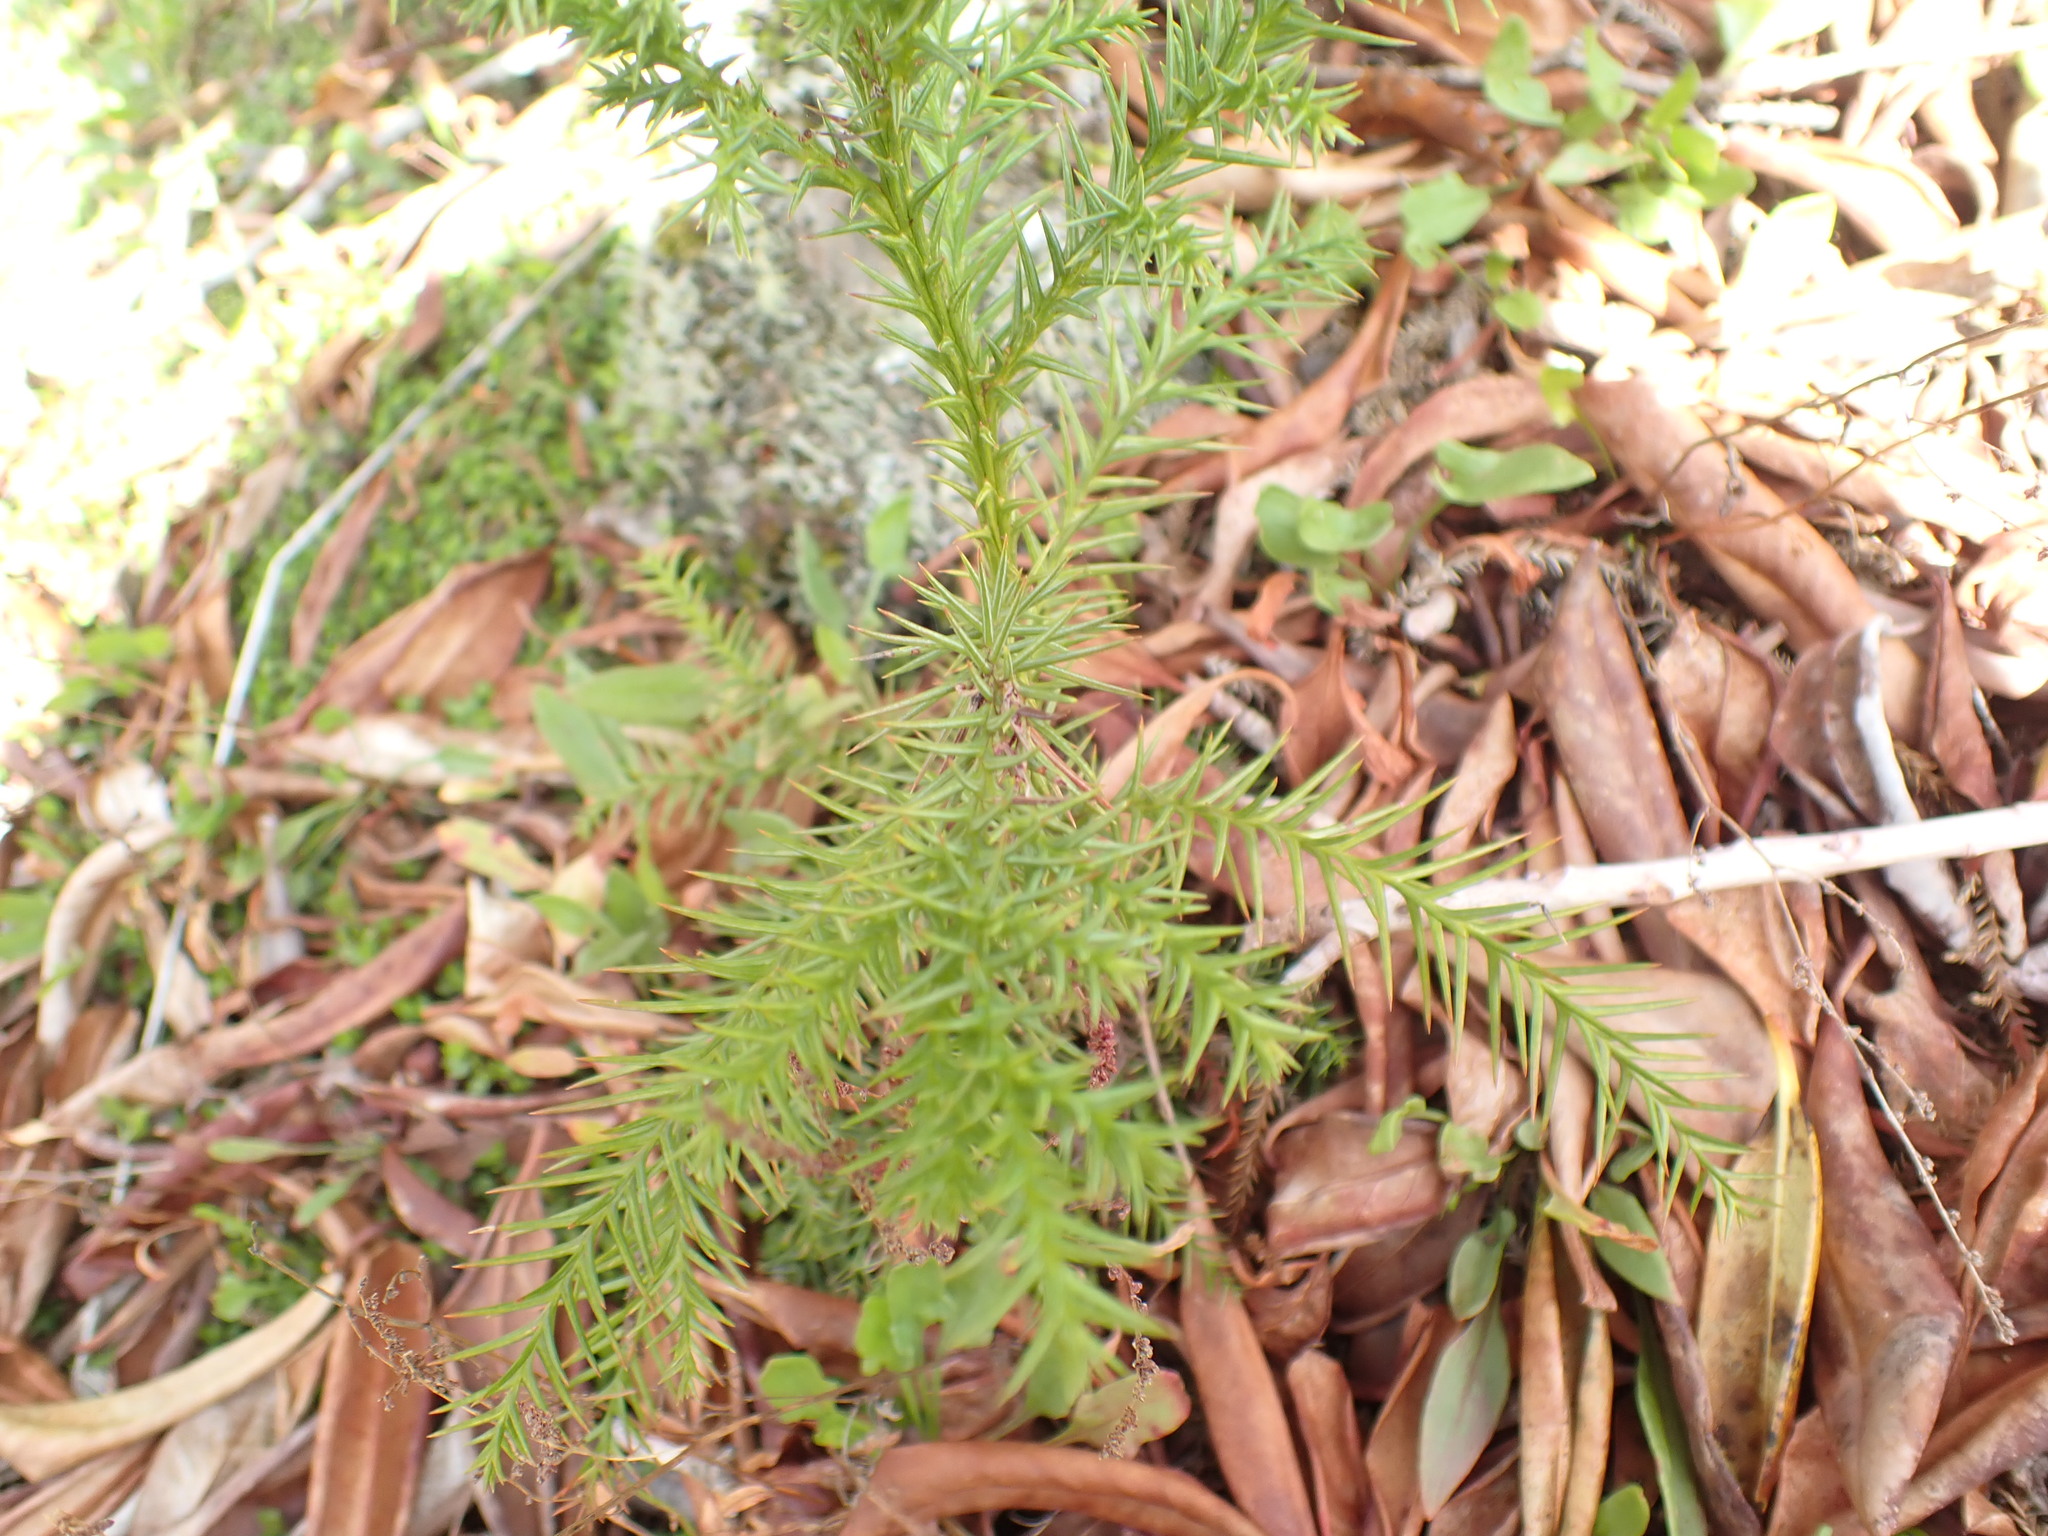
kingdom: Plantae
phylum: Tracheophyta
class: Pinopsida
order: Pinales
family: Cupressaceae
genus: Cryptomeria
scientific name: Cryptomeria japonica
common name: Japanese cedar
